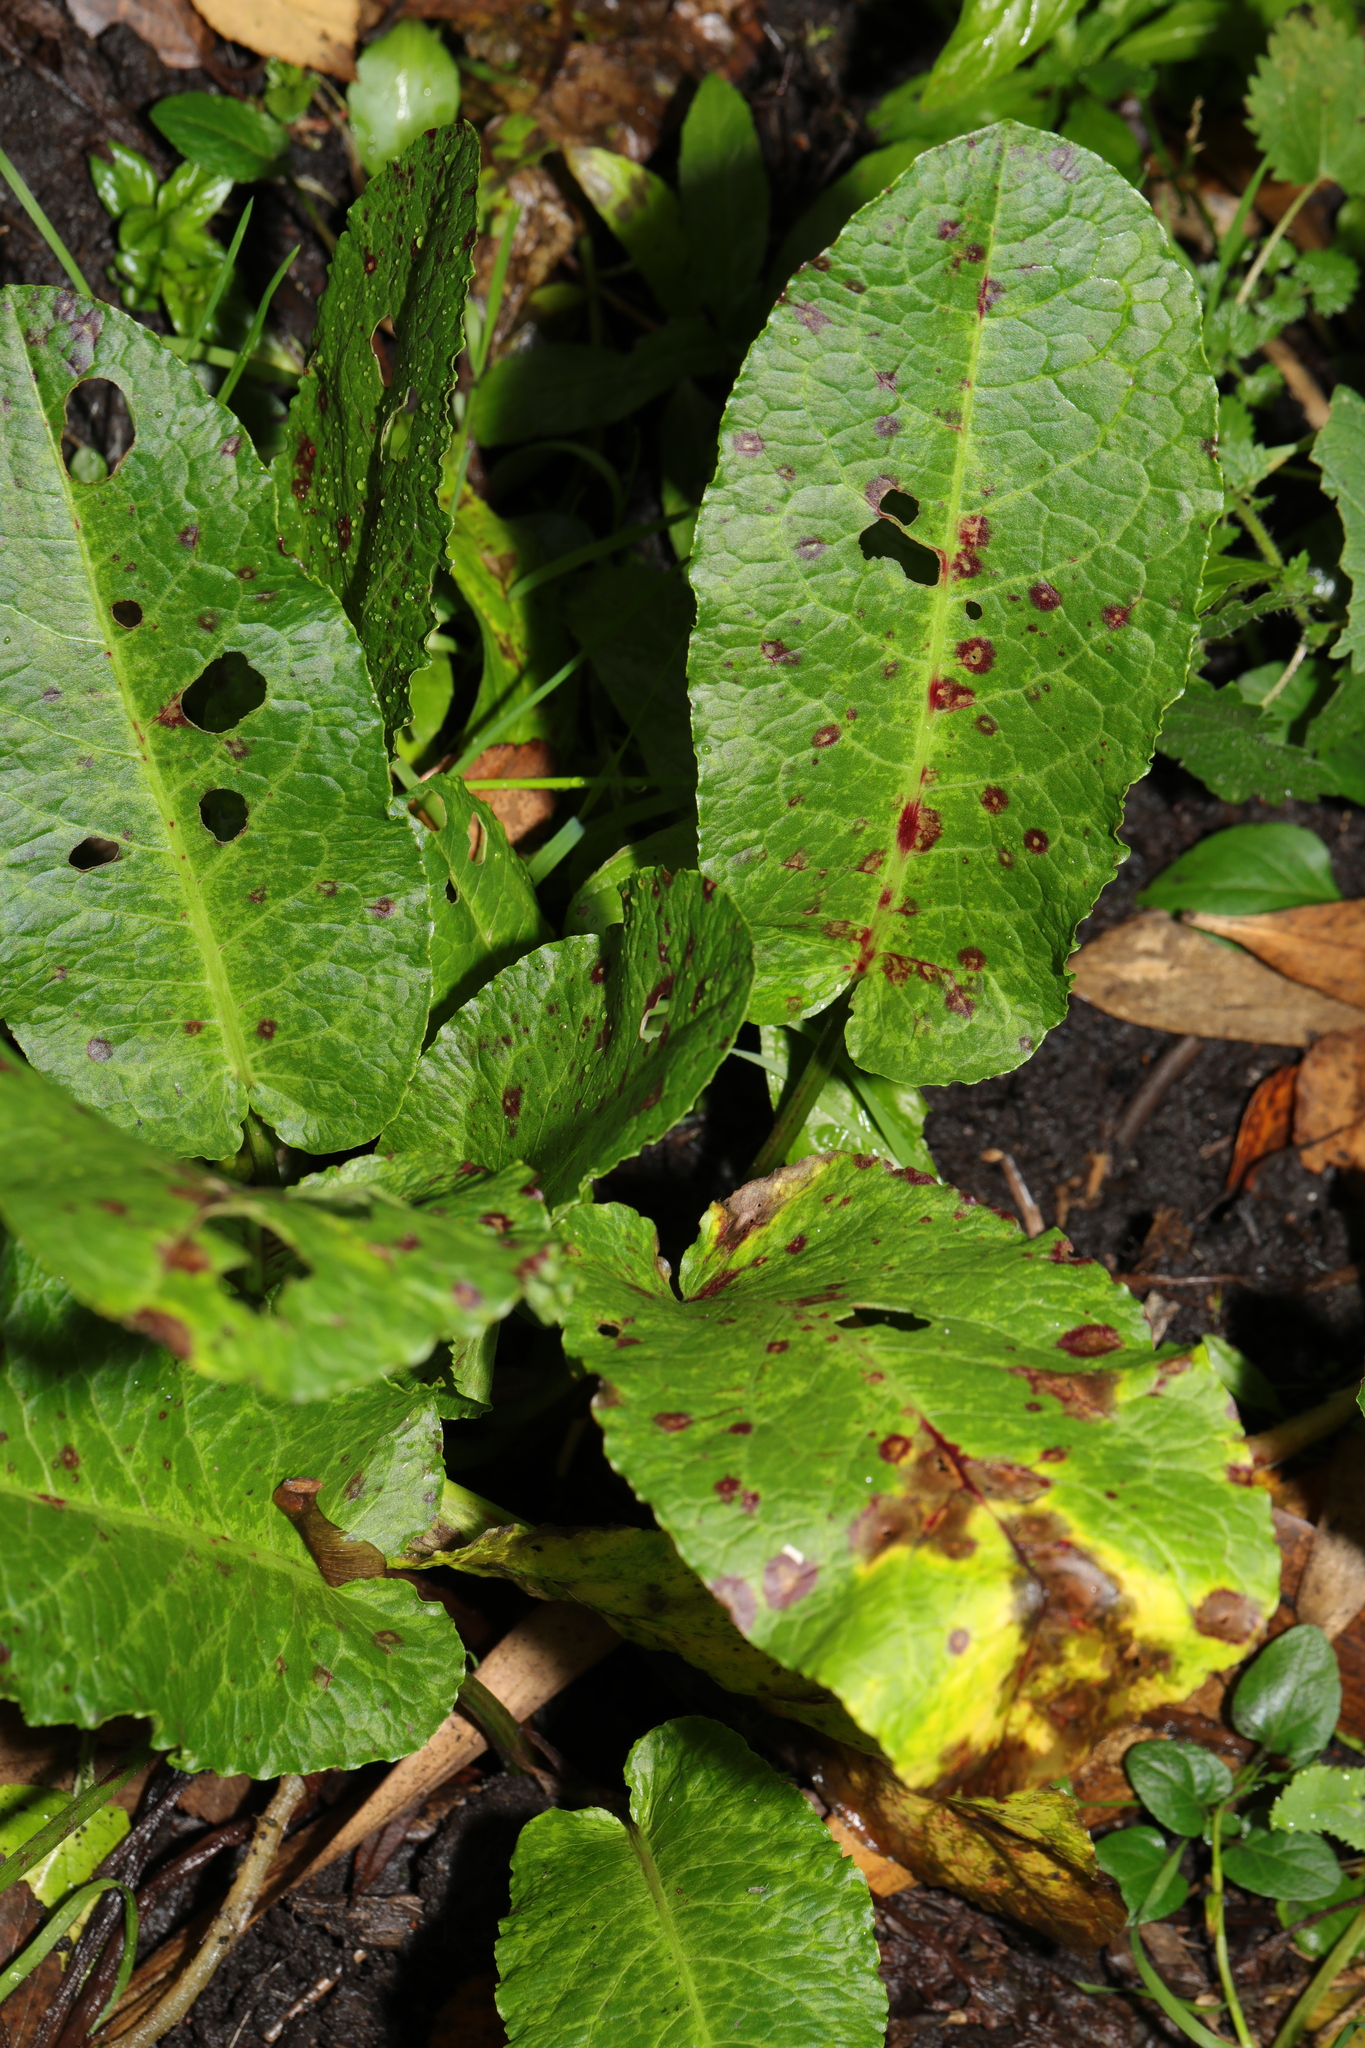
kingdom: Plantae
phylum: Tracheophyta
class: Magnoliopsida
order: Caryophyllales
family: Polygonaceae
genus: Rumex
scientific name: Rumex obtusifolius
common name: Bitter dock
